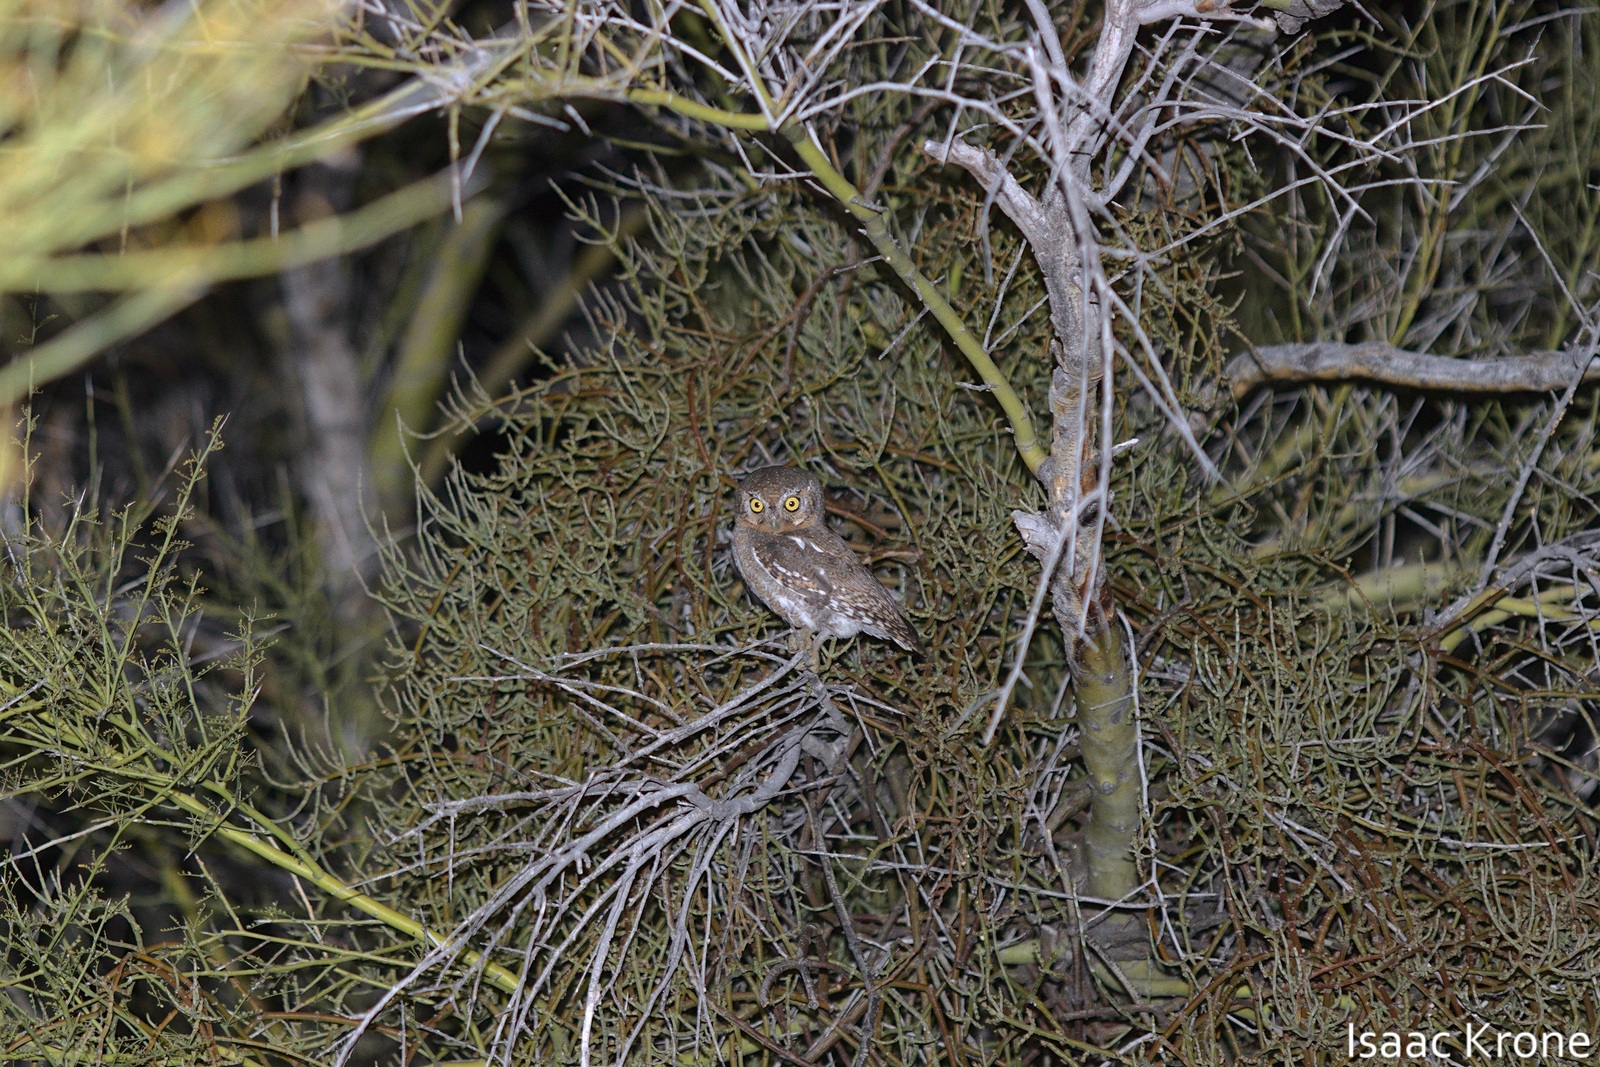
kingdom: Animalia
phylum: Chordata
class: Aves
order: Strigiformes
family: Strigidae
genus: Micrathene
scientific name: Micrathene whitneyi
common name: Elf owl
